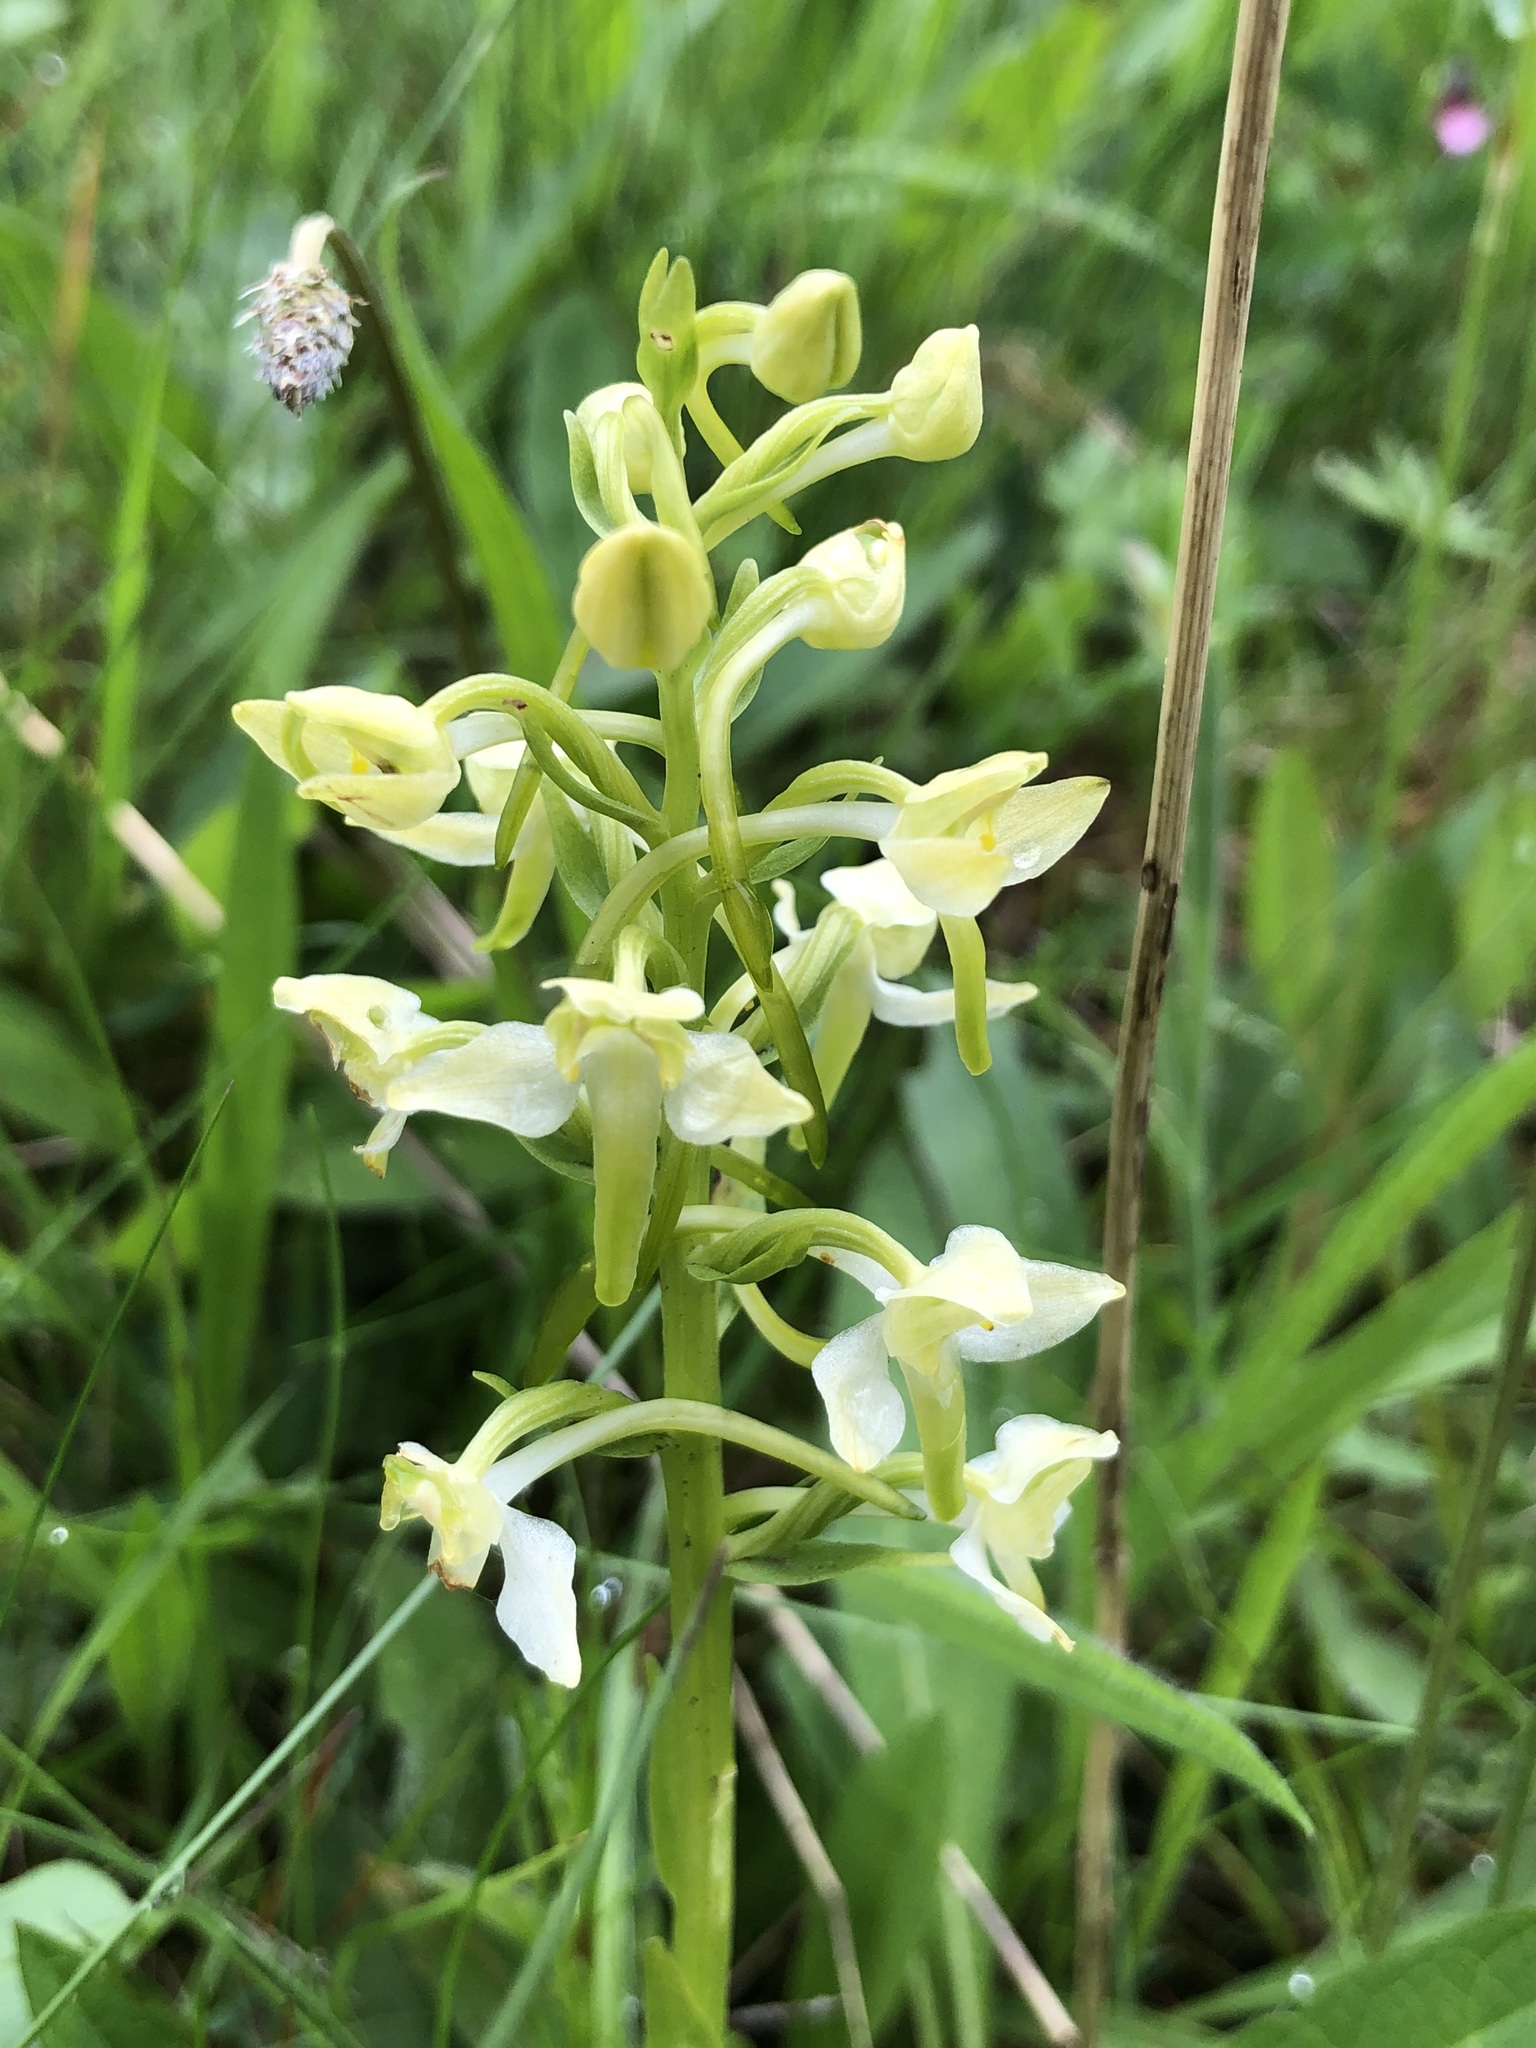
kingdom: Plantae
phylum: Tracheophyta
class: Liliopsida
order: Asparagales
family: Orchidaceae
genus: Platanthera
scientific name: Platanthera chlorantha
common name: Greater butterfly-orchid
